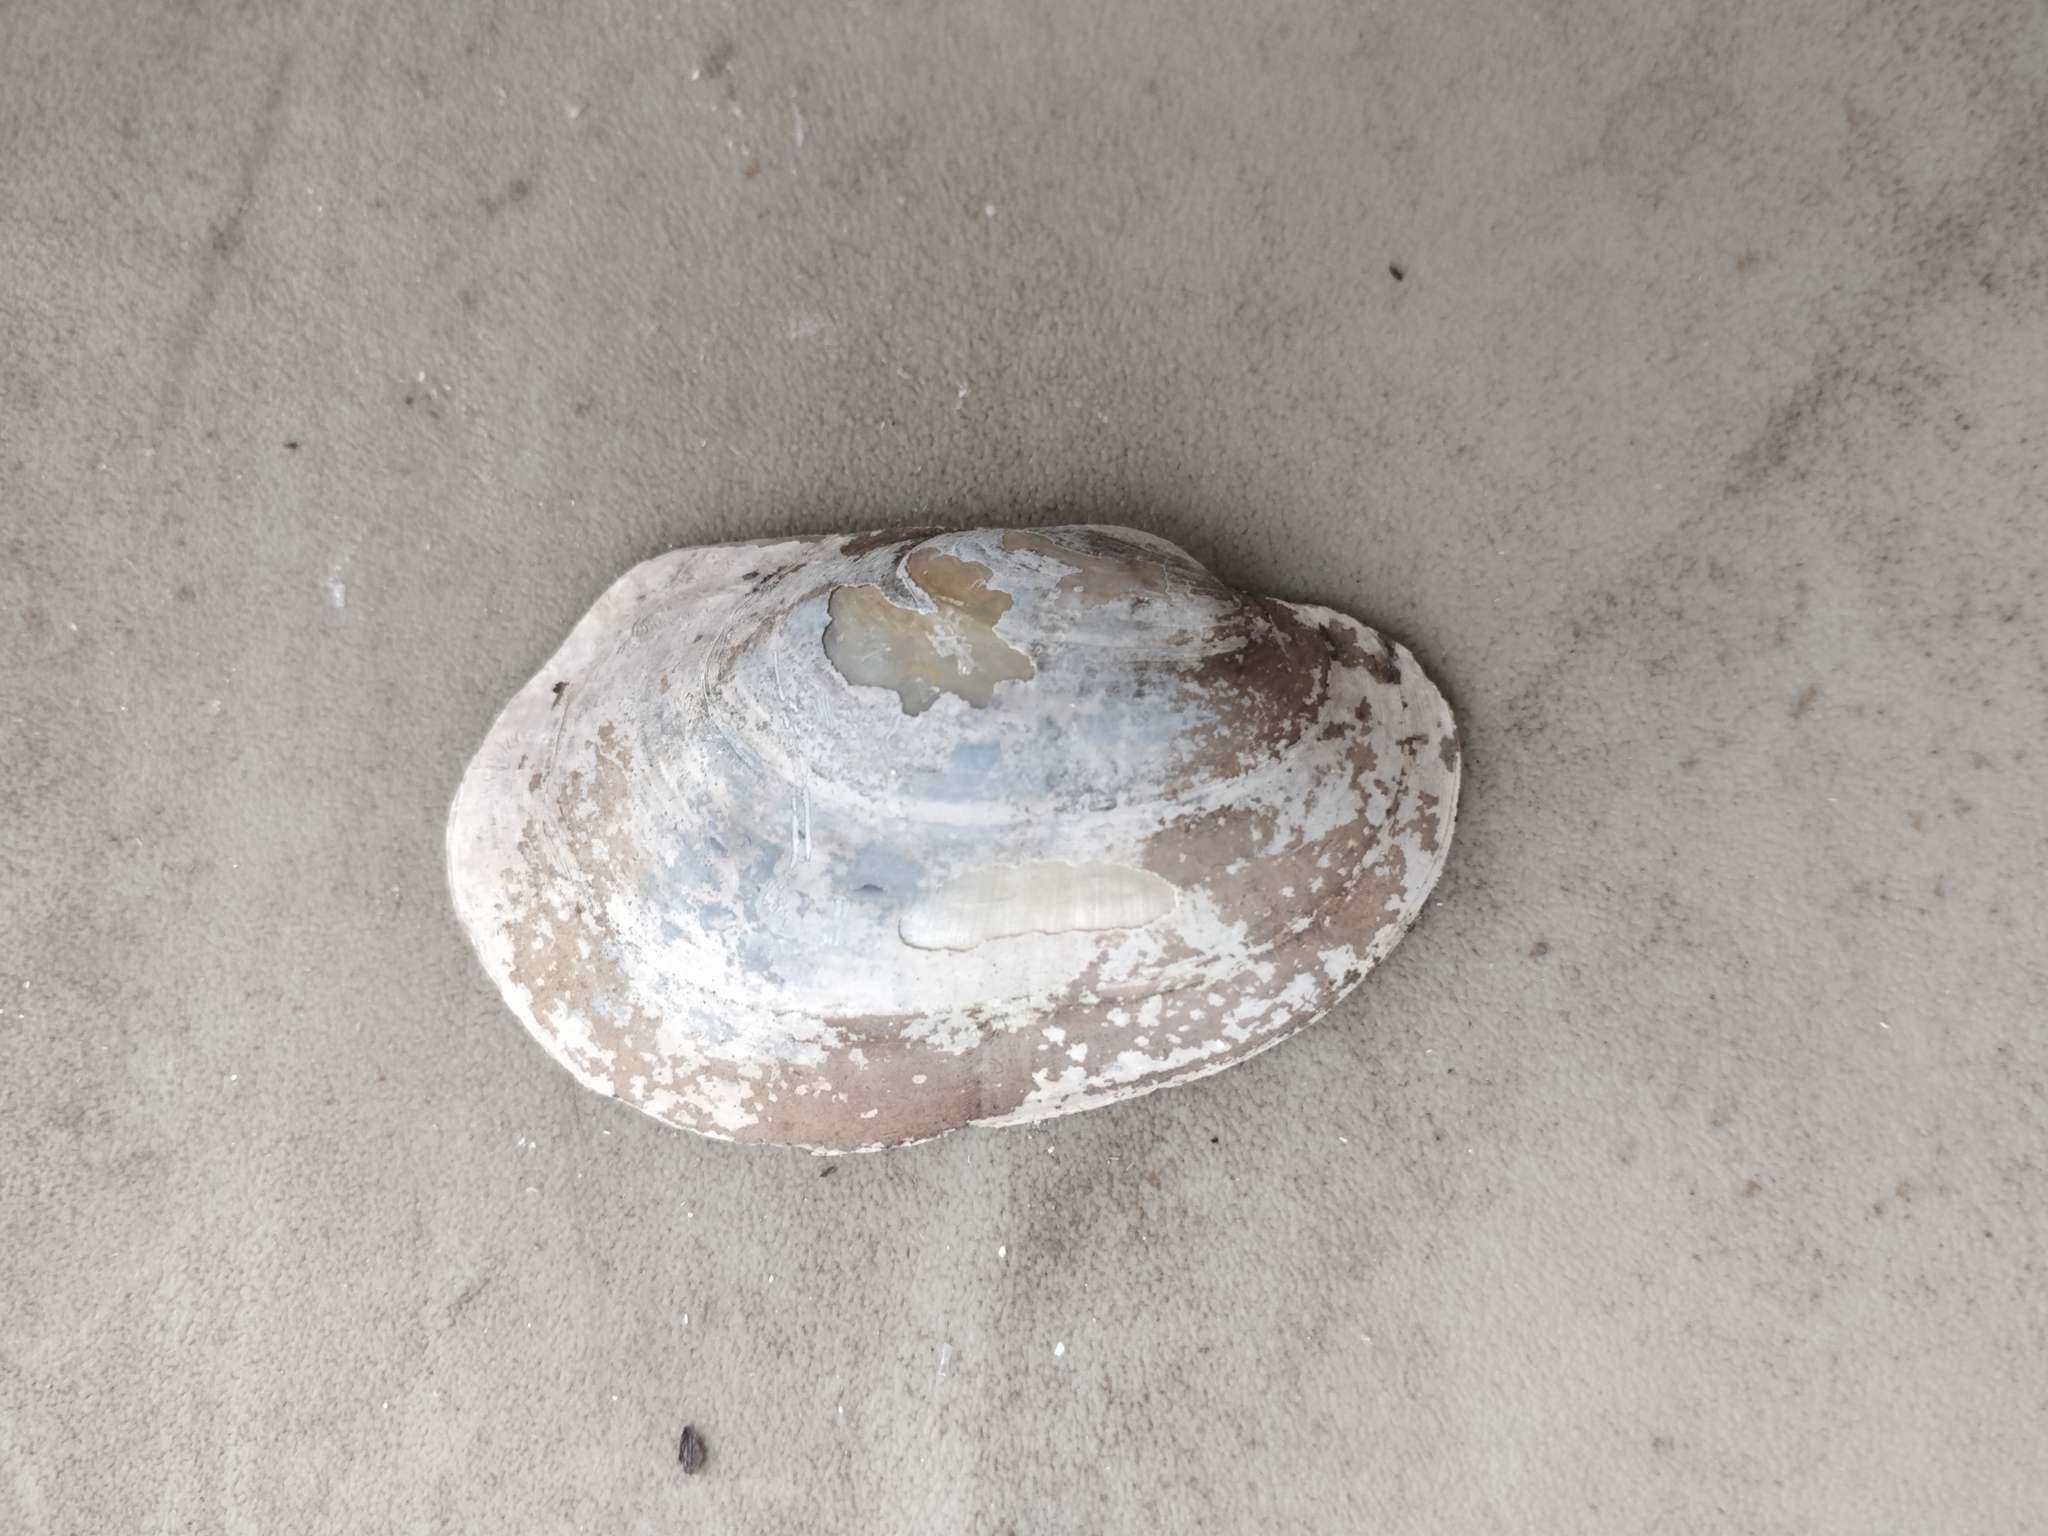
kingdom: Animalia
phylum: Mollusca
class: Bivalvia
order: Unionida
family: Unionidae
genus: Lampsilis
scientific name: Lampsilis siliquoidea
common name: Fatmucket
